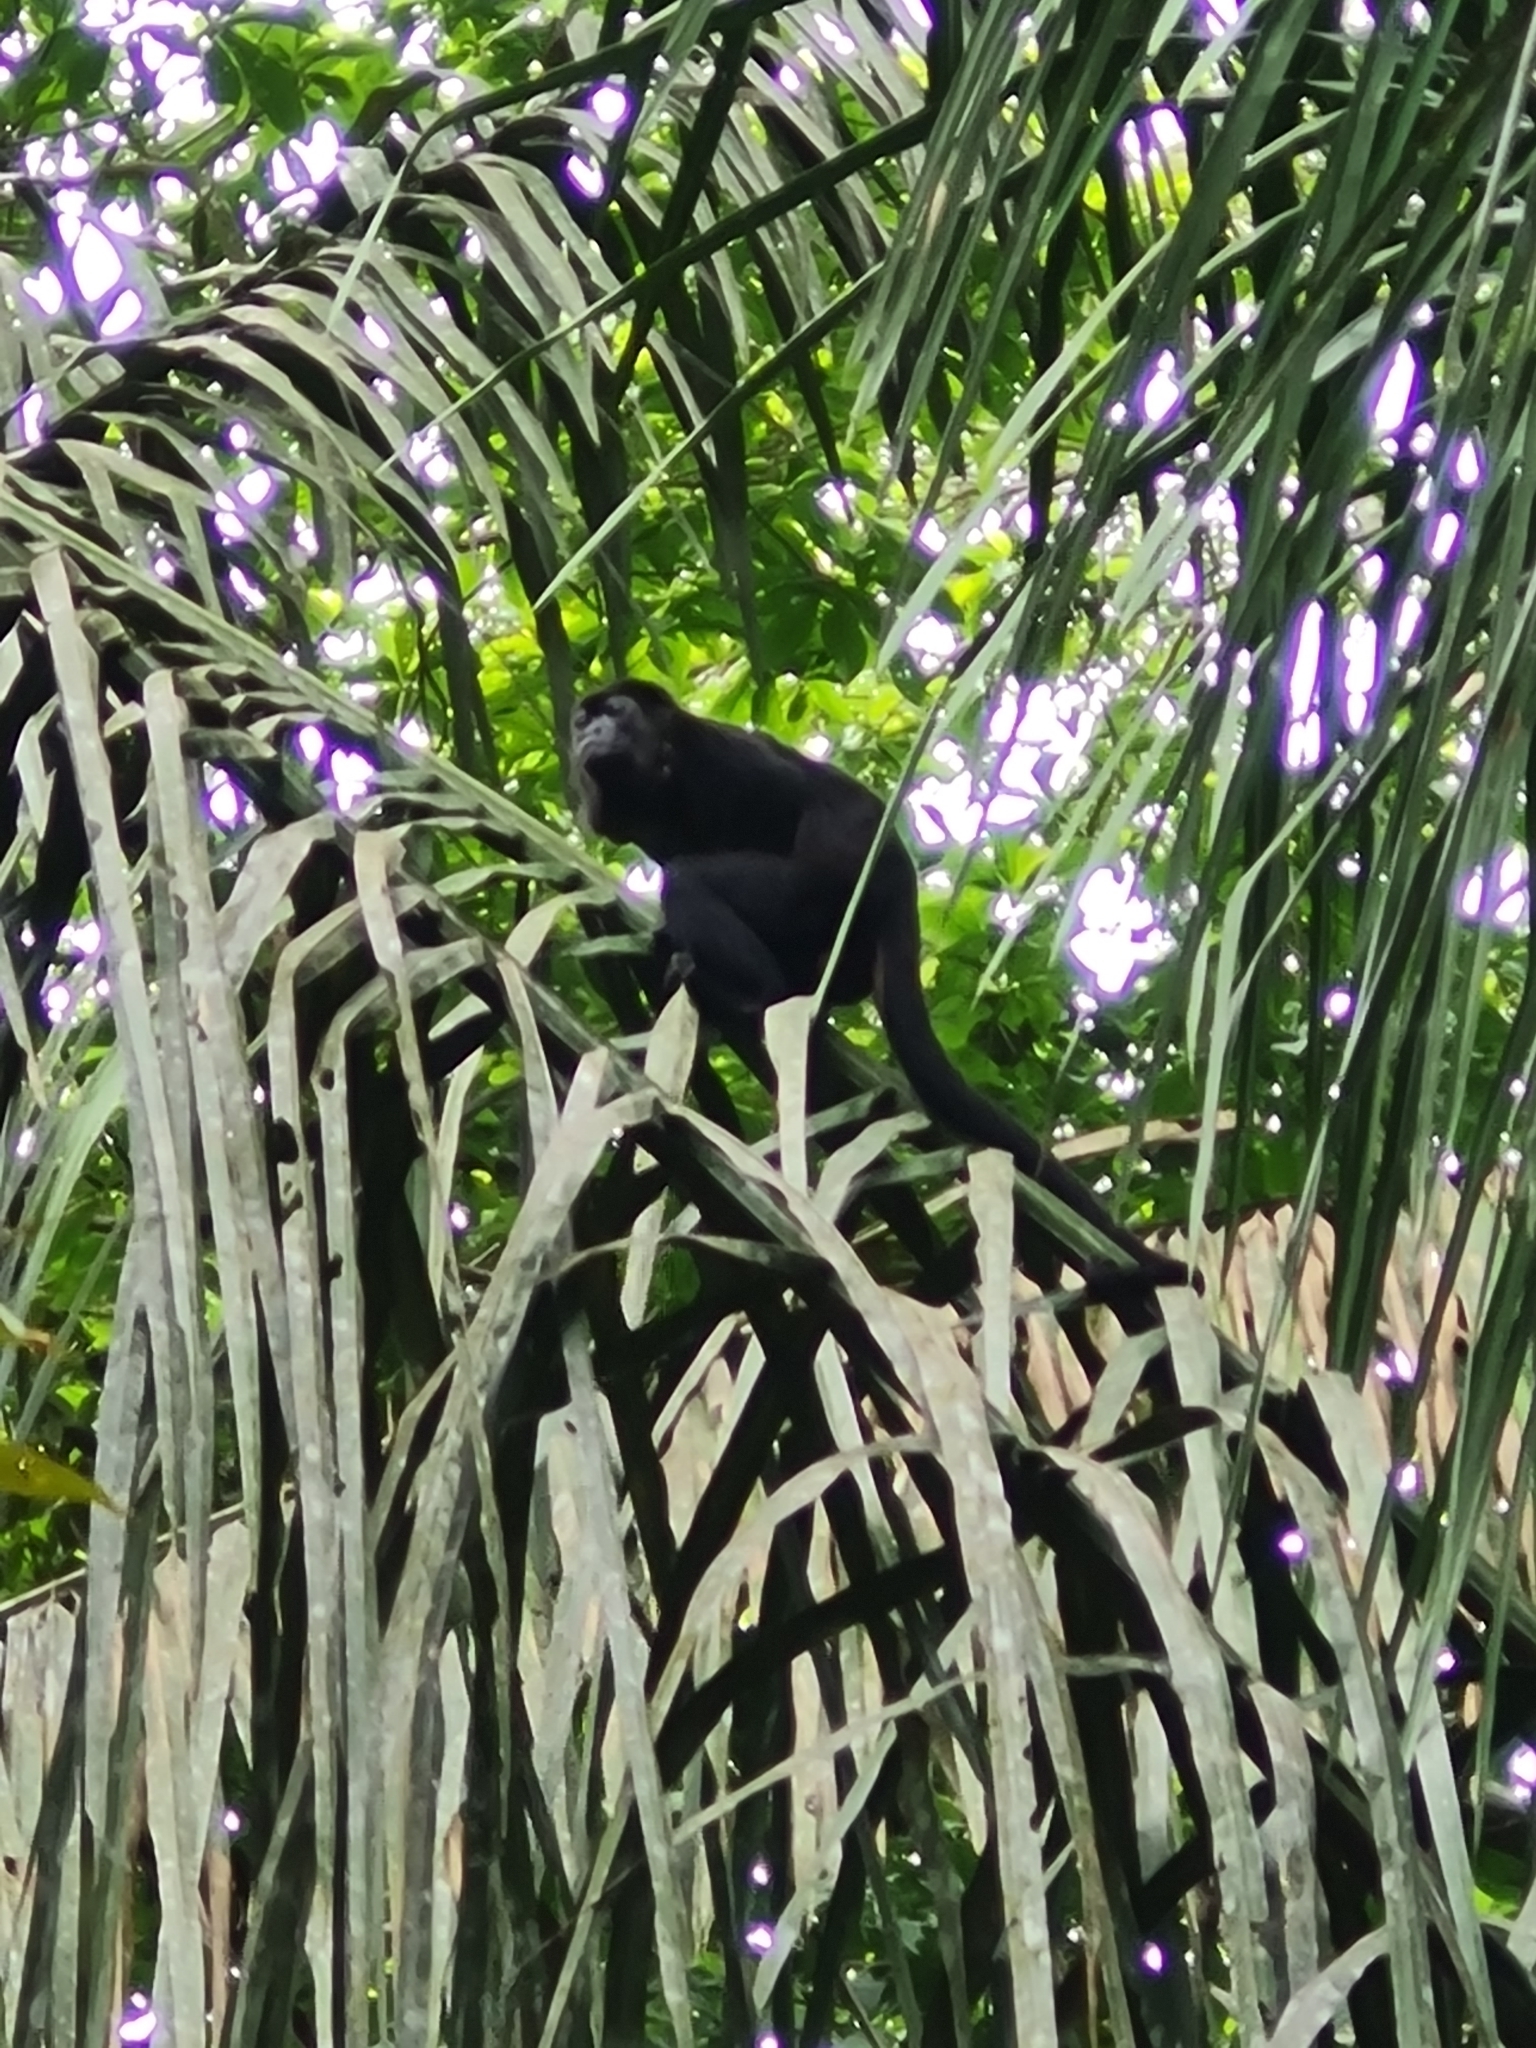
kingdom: Animalia
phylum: Chordata
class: Mammalia
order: Primates
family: Atelidae
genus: Alouatta
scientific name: Alouatta palliata
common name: Mantled howler
